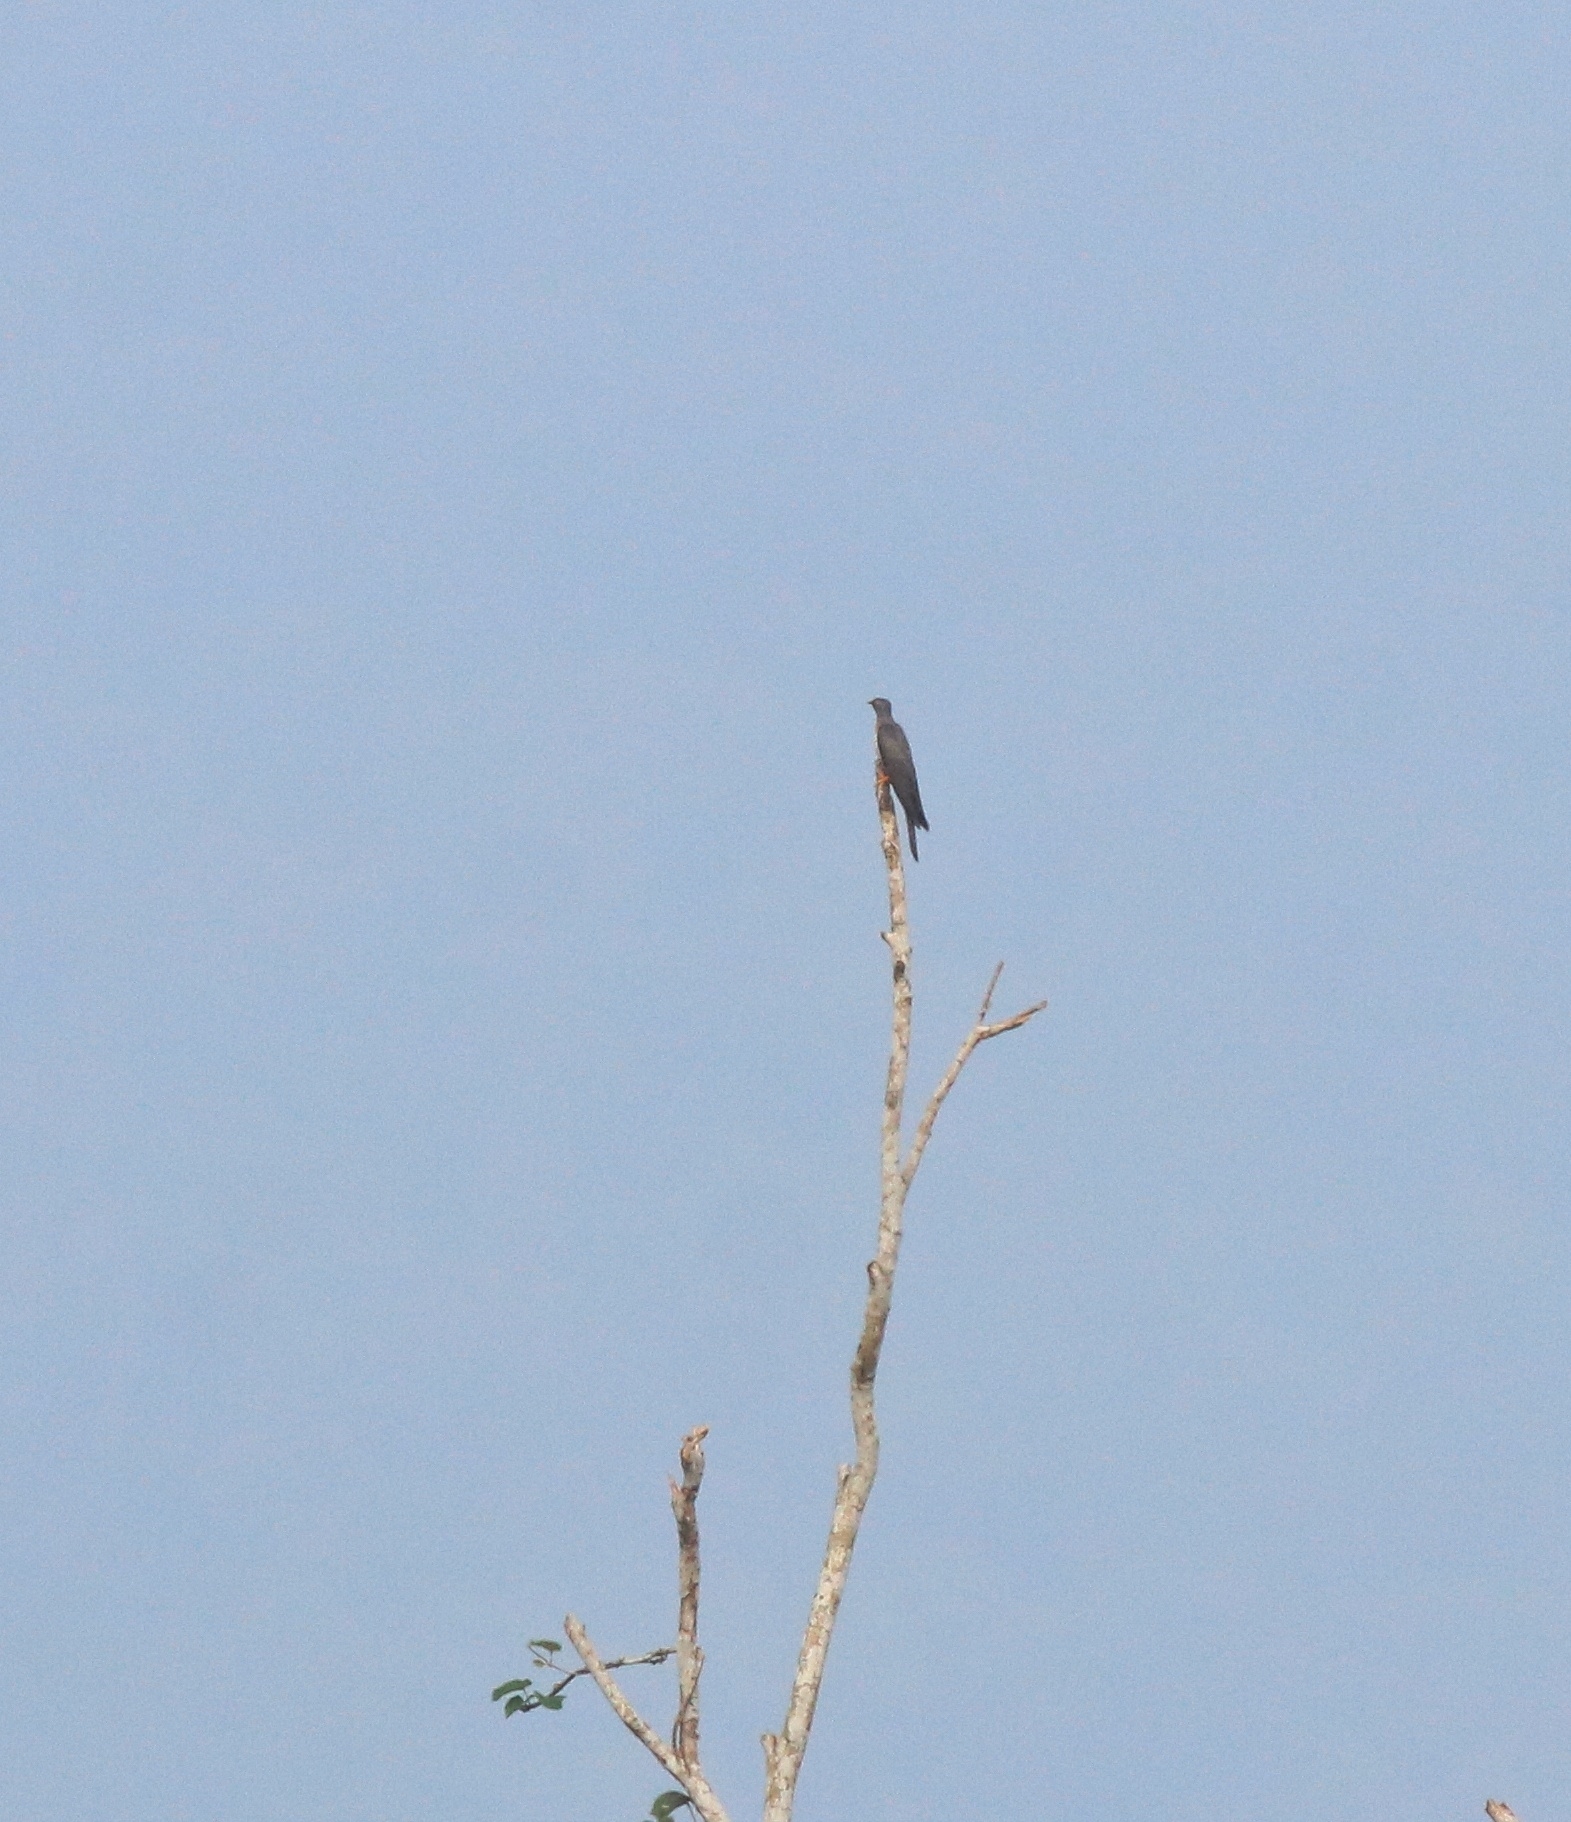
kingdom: Animalia
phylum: Chordata
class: Aves
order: Cuculiformes
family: Cuculidae
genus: Cuculus
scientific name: Cuculus canorus
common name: Common cuckoo
